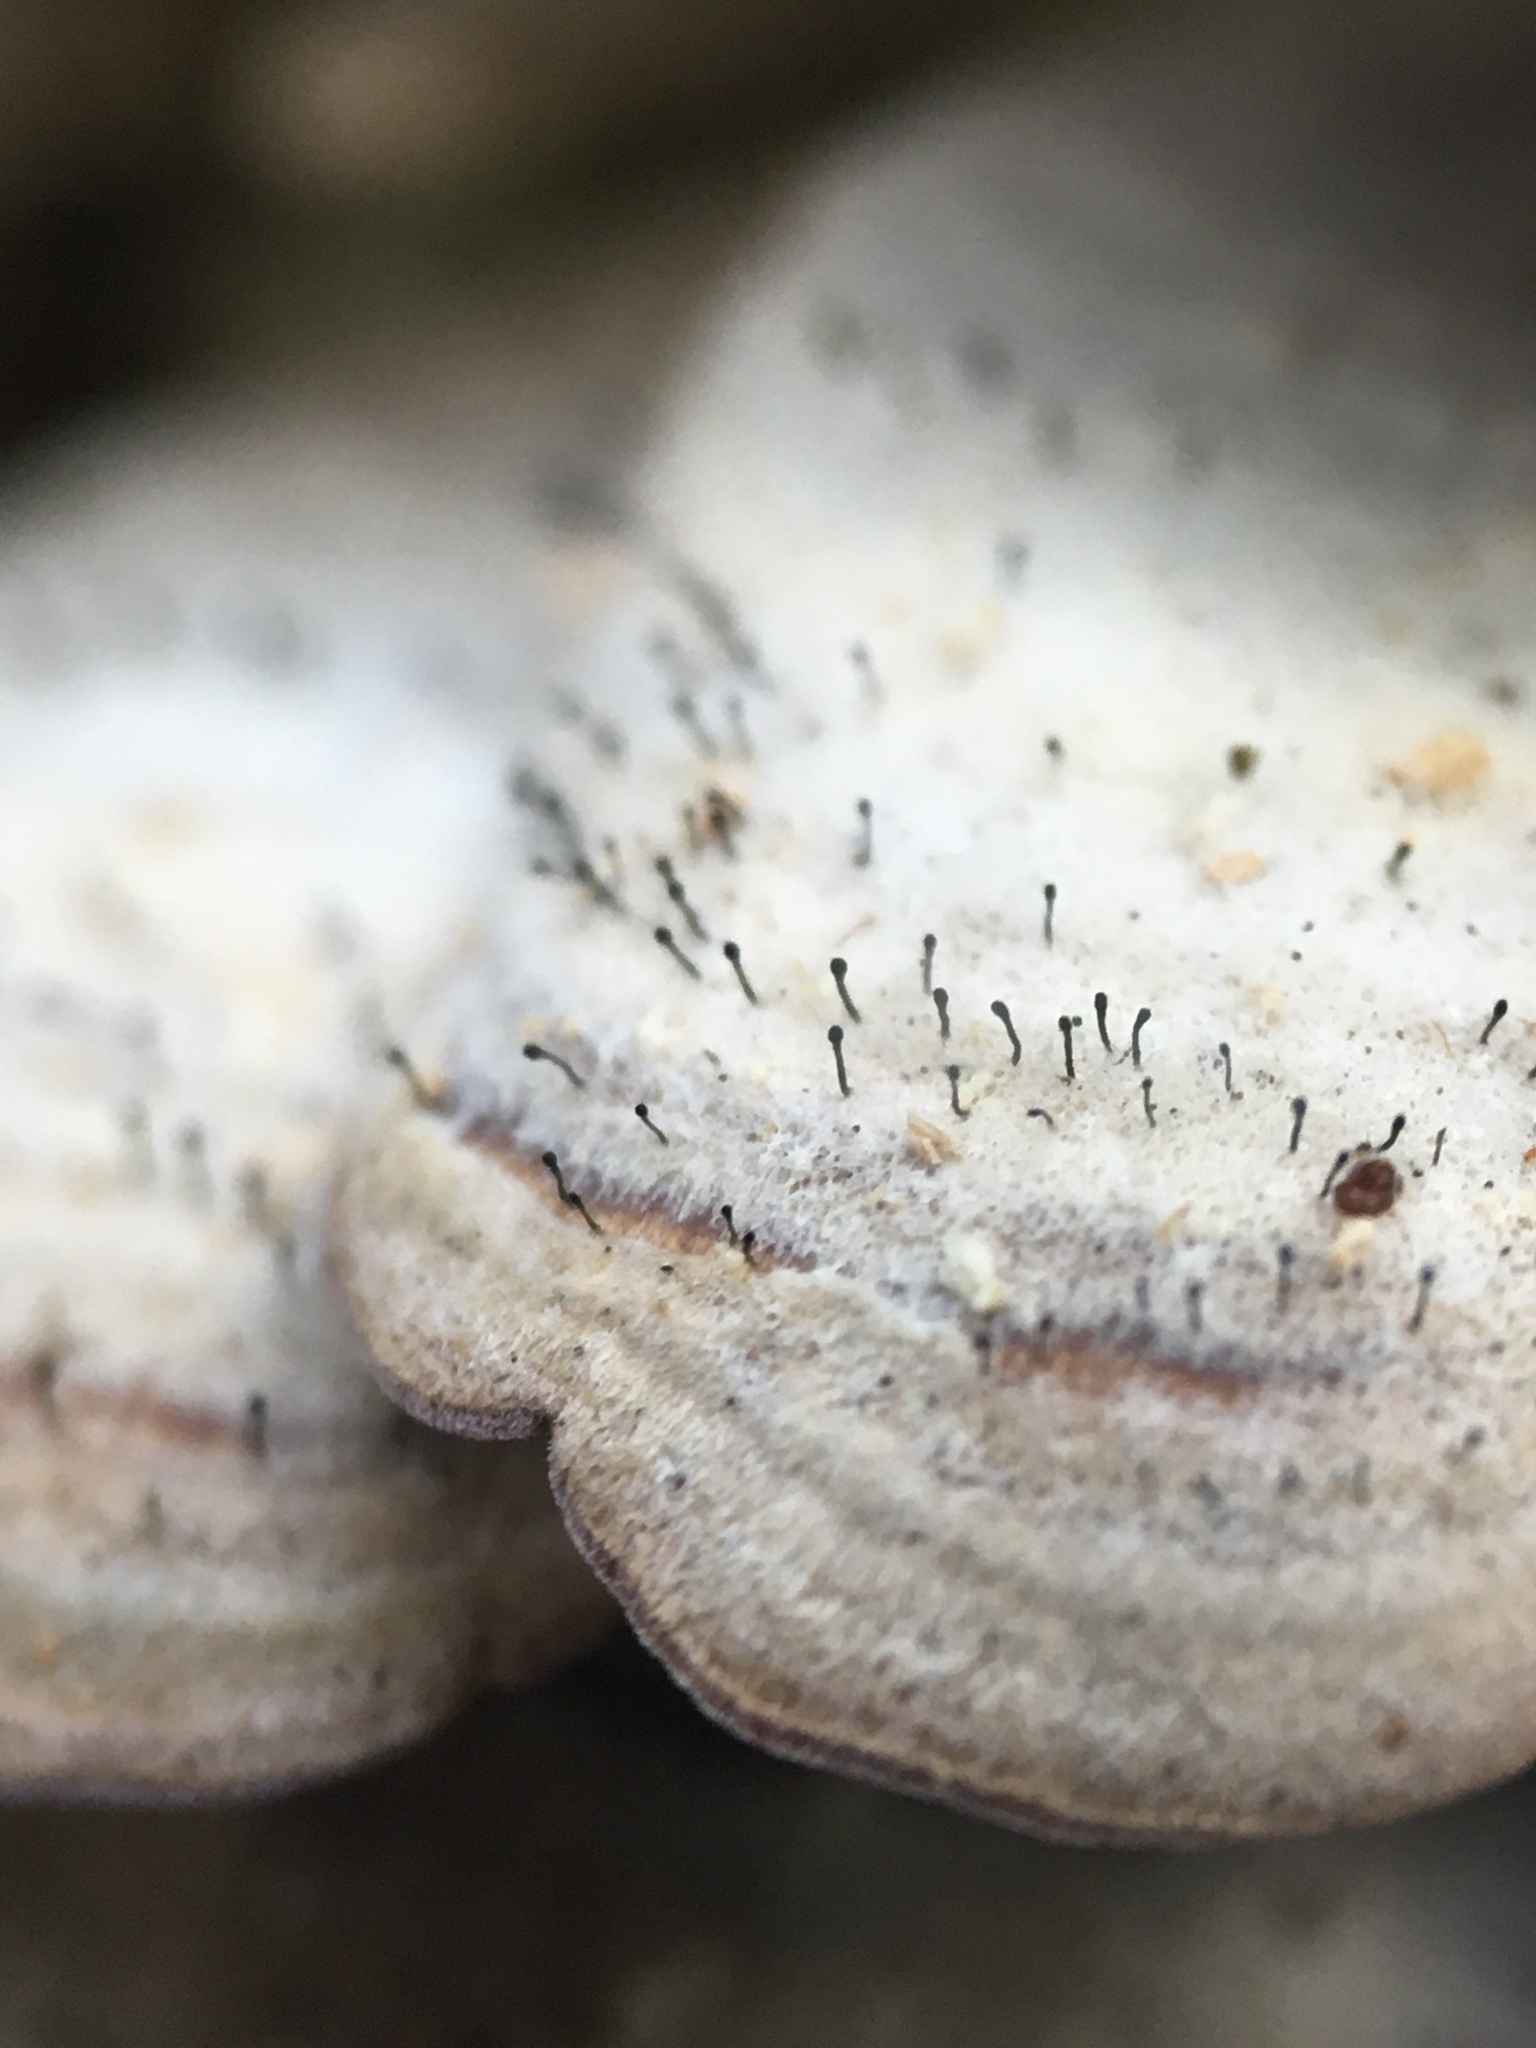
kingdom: Fungi
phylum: Ascomycota
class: Eurotiomycetes
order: Mycocaliciales
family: Mycocaliciaceae
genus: Phaeocalicium
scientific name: Phaeocalicium polyporaeum
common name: Fairy pins
